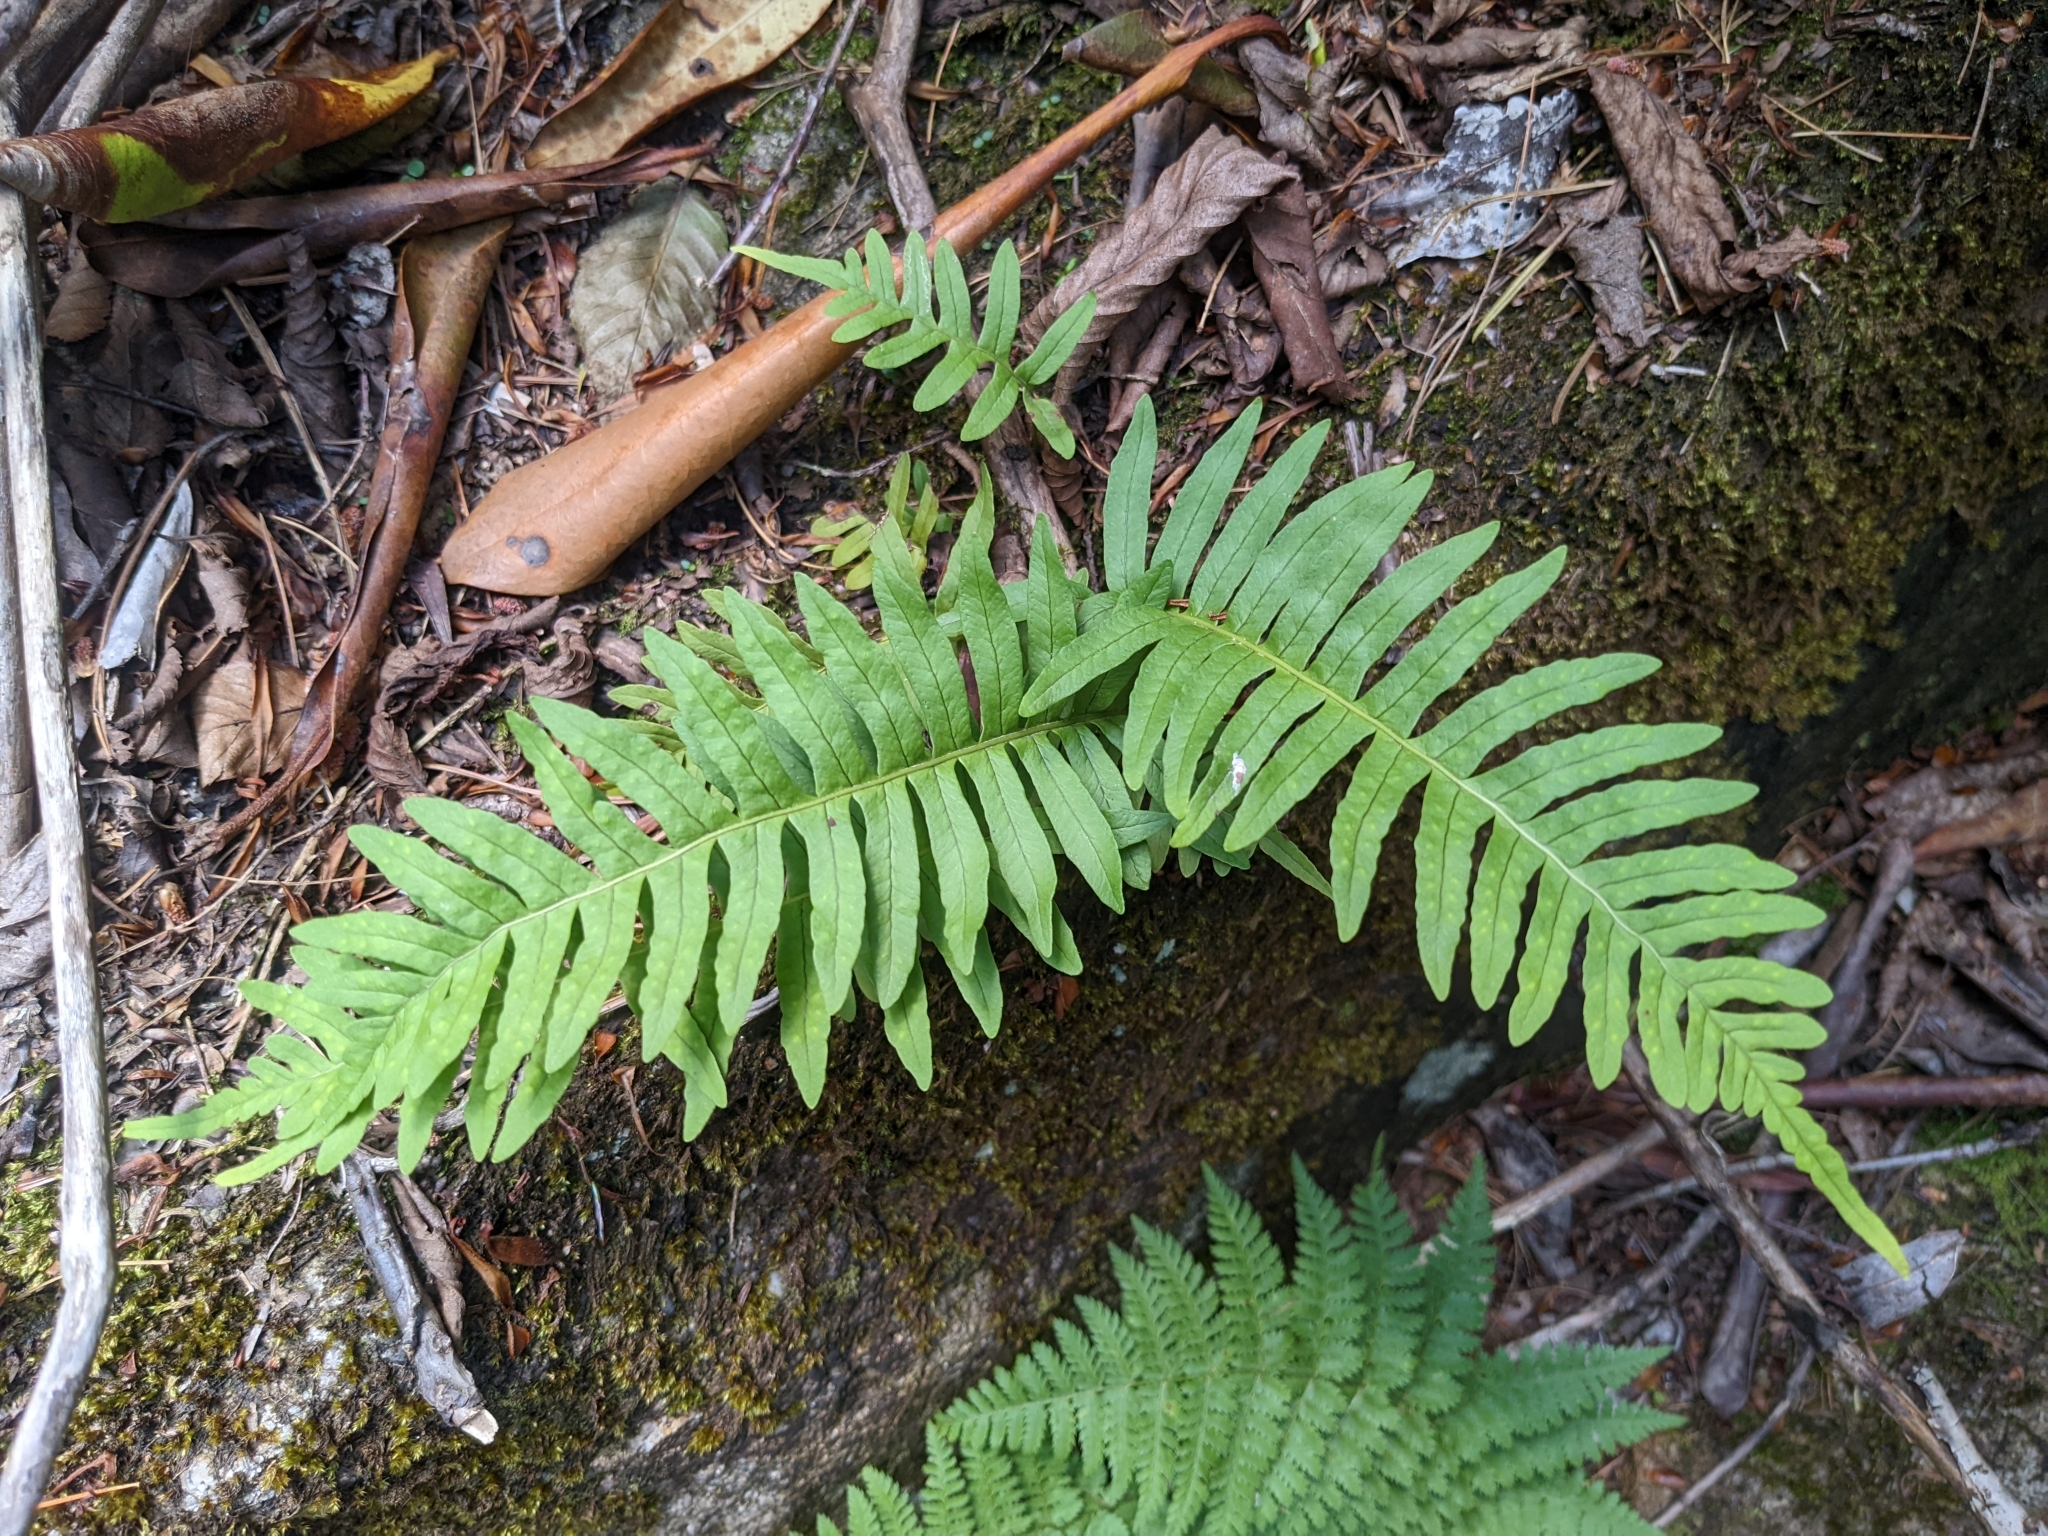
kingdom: Plantae
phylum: Tracheophyta
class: Polypodiopsida
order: Polypodiales
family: Polypodiaceae
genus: Polypodium
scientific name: Polypodium appalachianum
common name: Appalachian polypody
